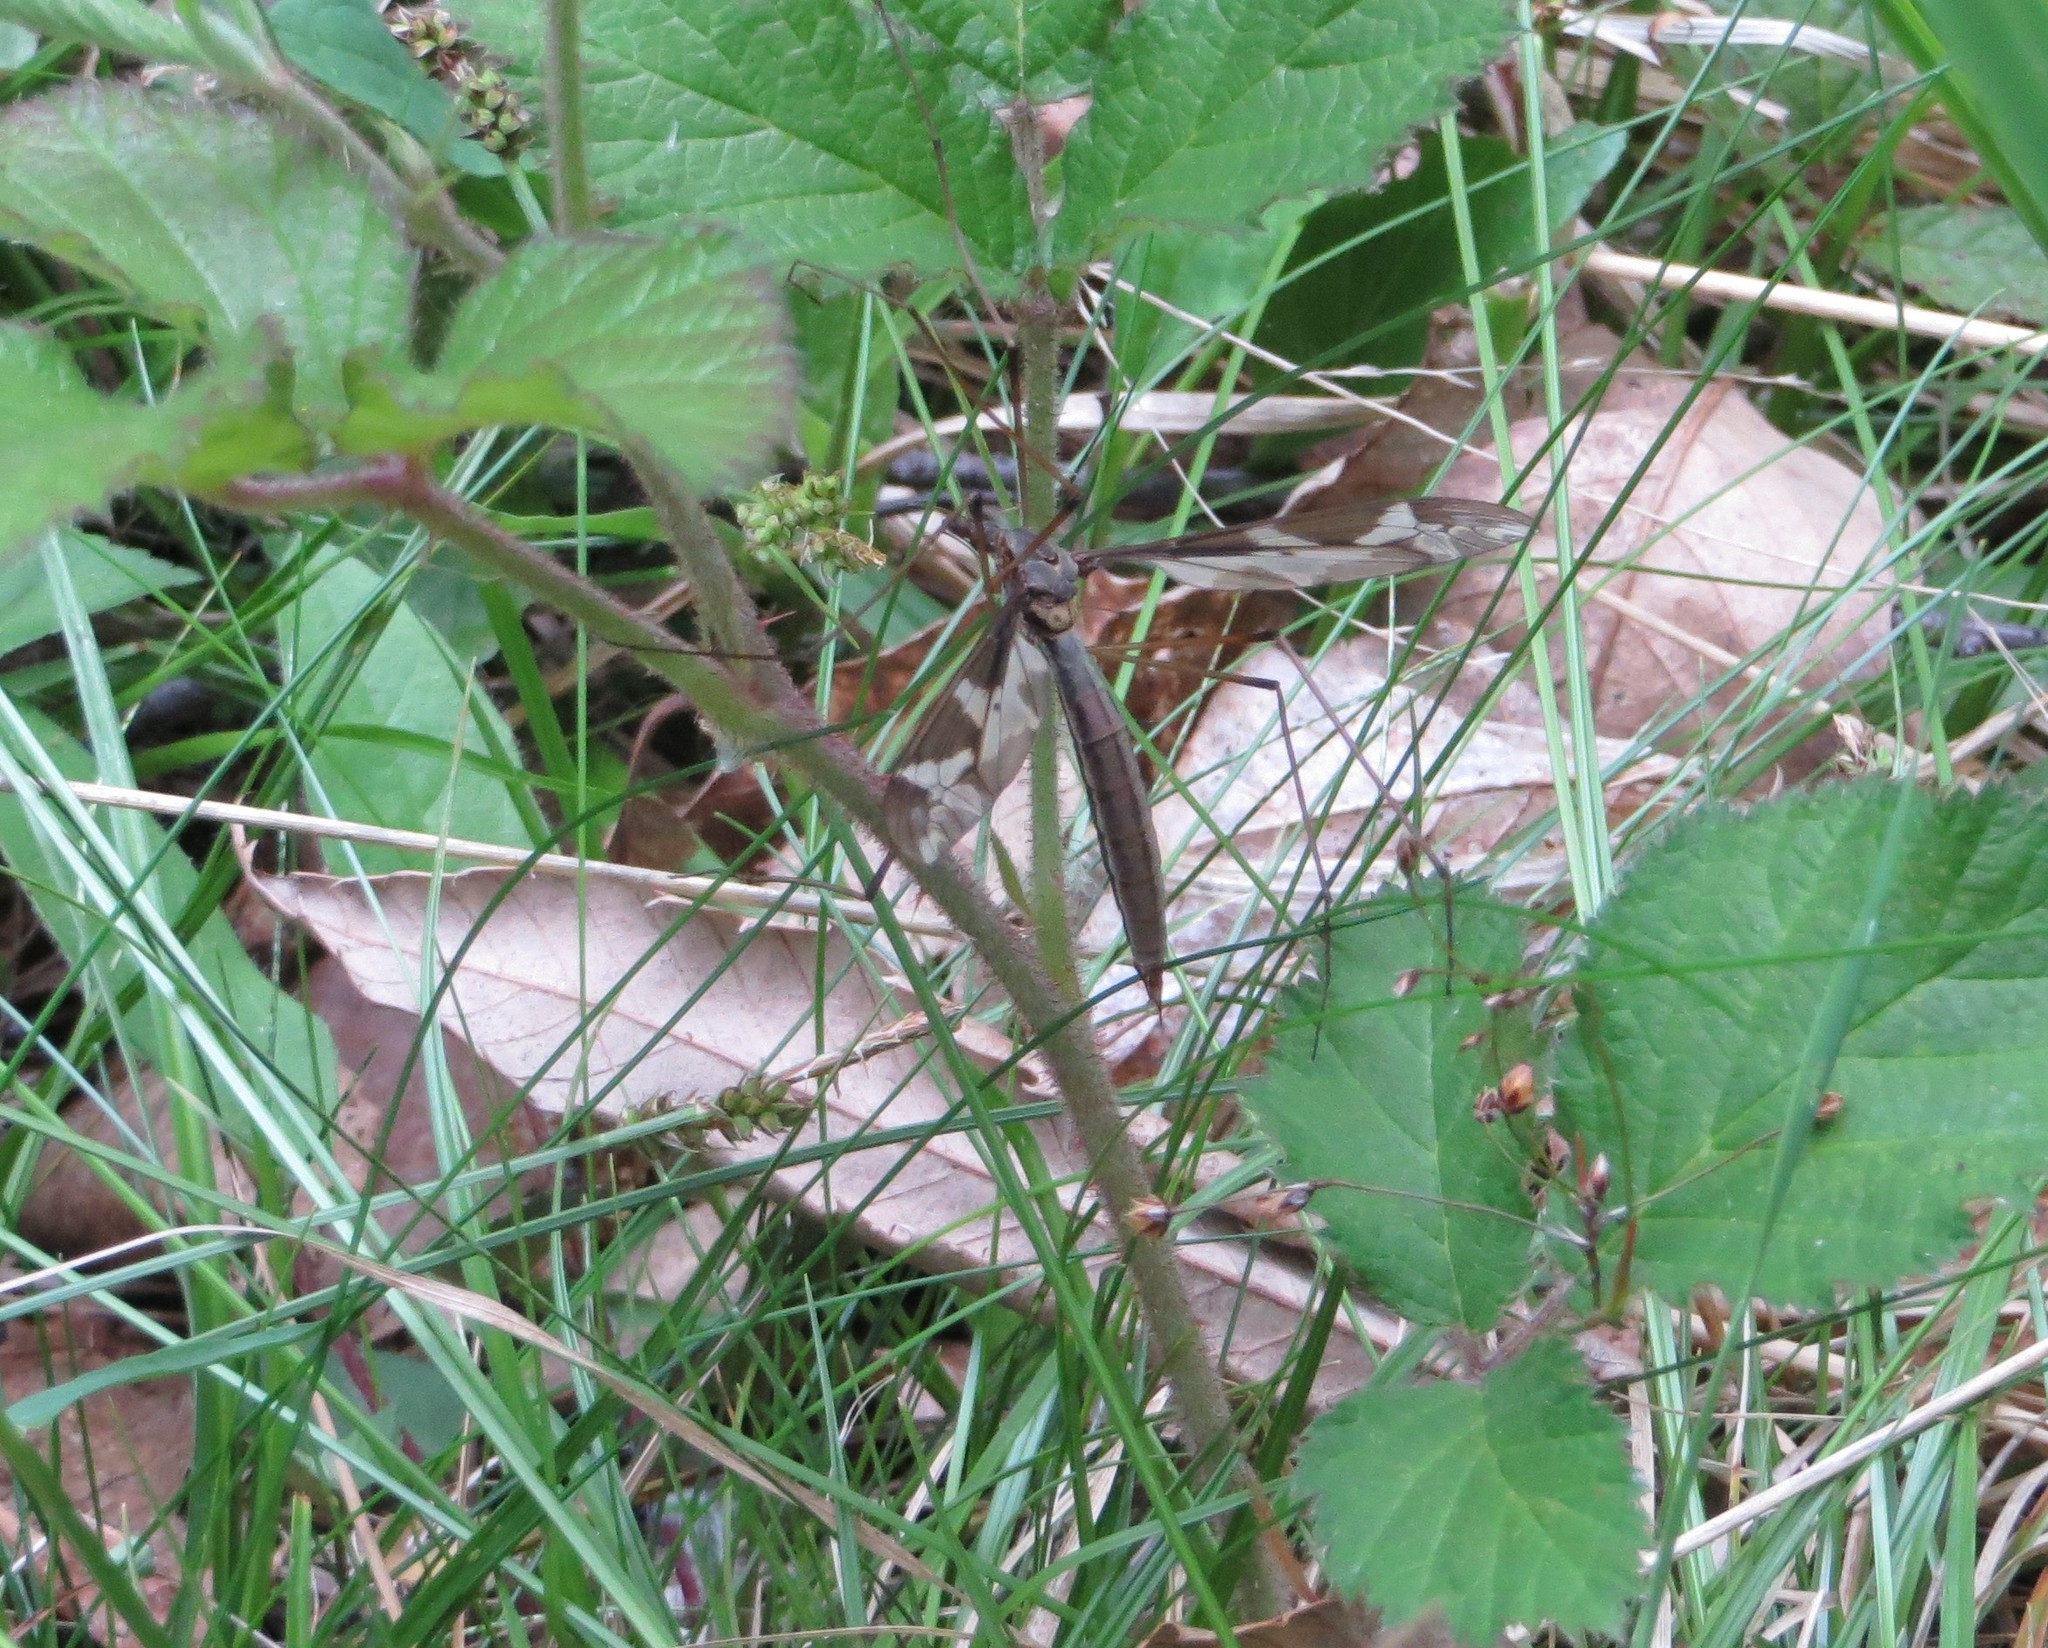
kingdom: Animalia
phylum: Arthropoda
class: Insecta
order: Diptera
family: Tipulidae
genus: Tipula
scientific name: Tipula maxima
